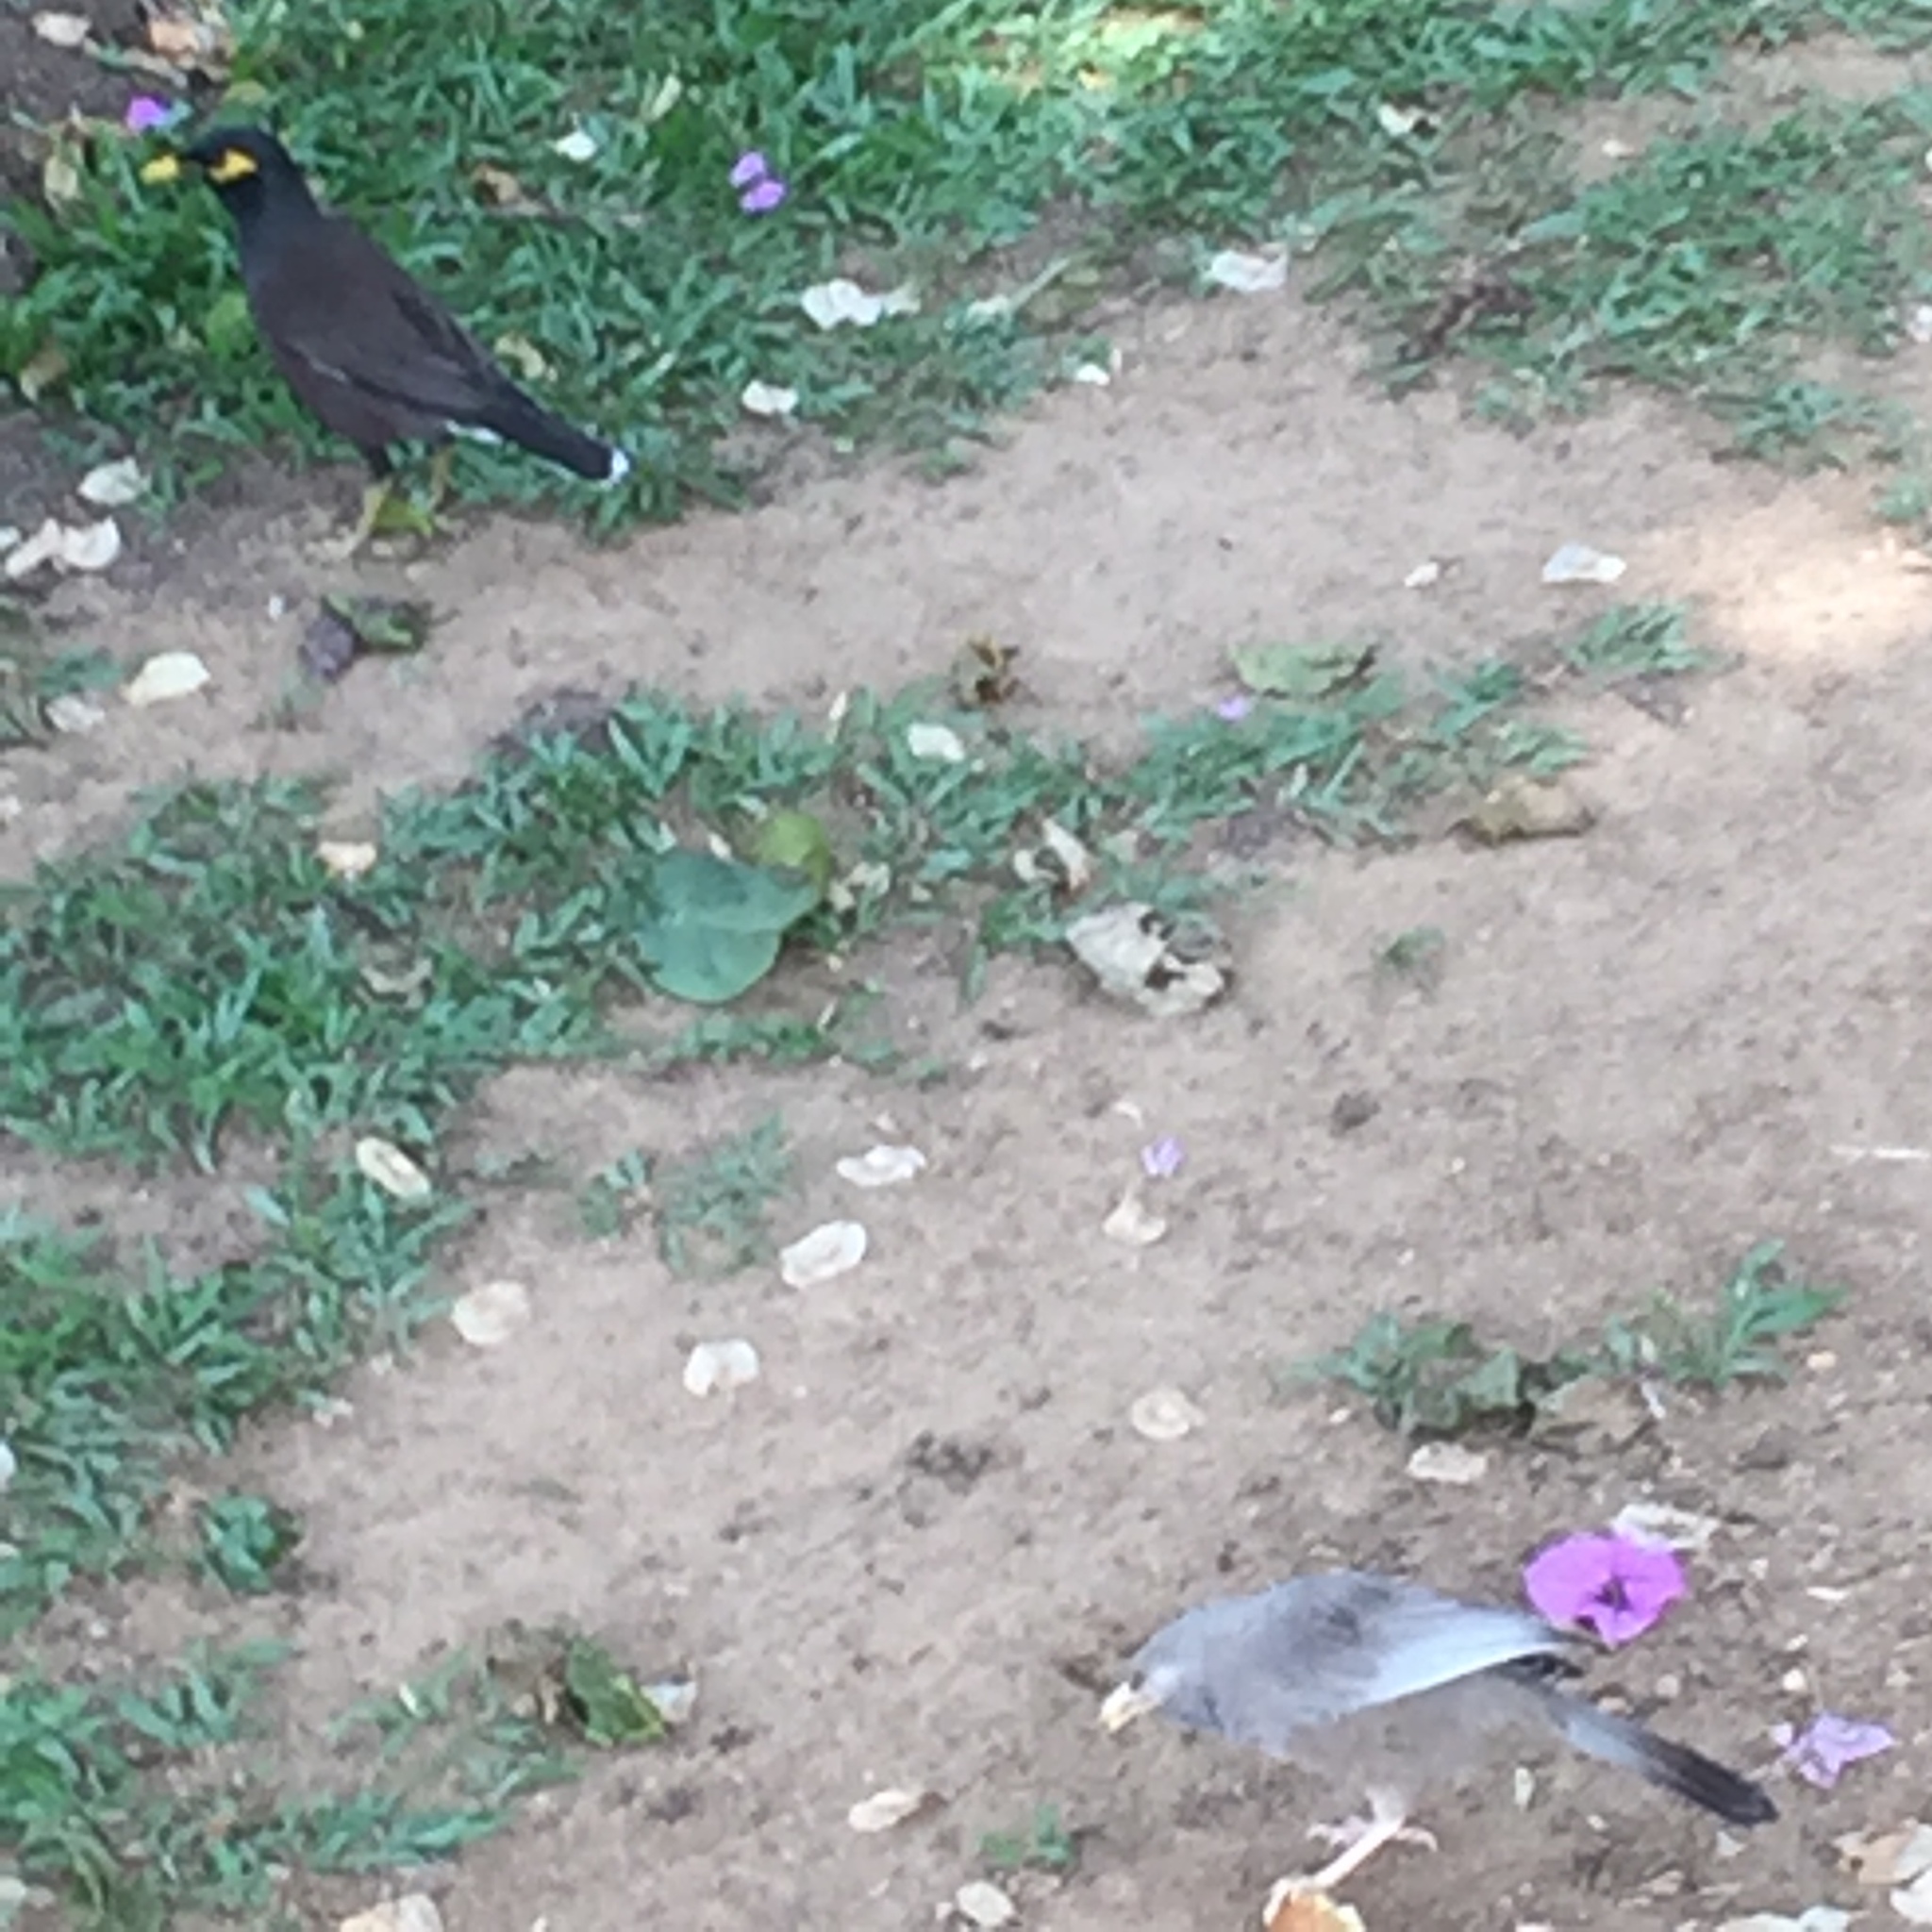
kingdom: Animalia
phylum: Chordata
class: Aves
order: Passeriformes
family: Sturnidae
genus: Acridotheres
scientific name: Acridotheres tristis
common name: Common myna
